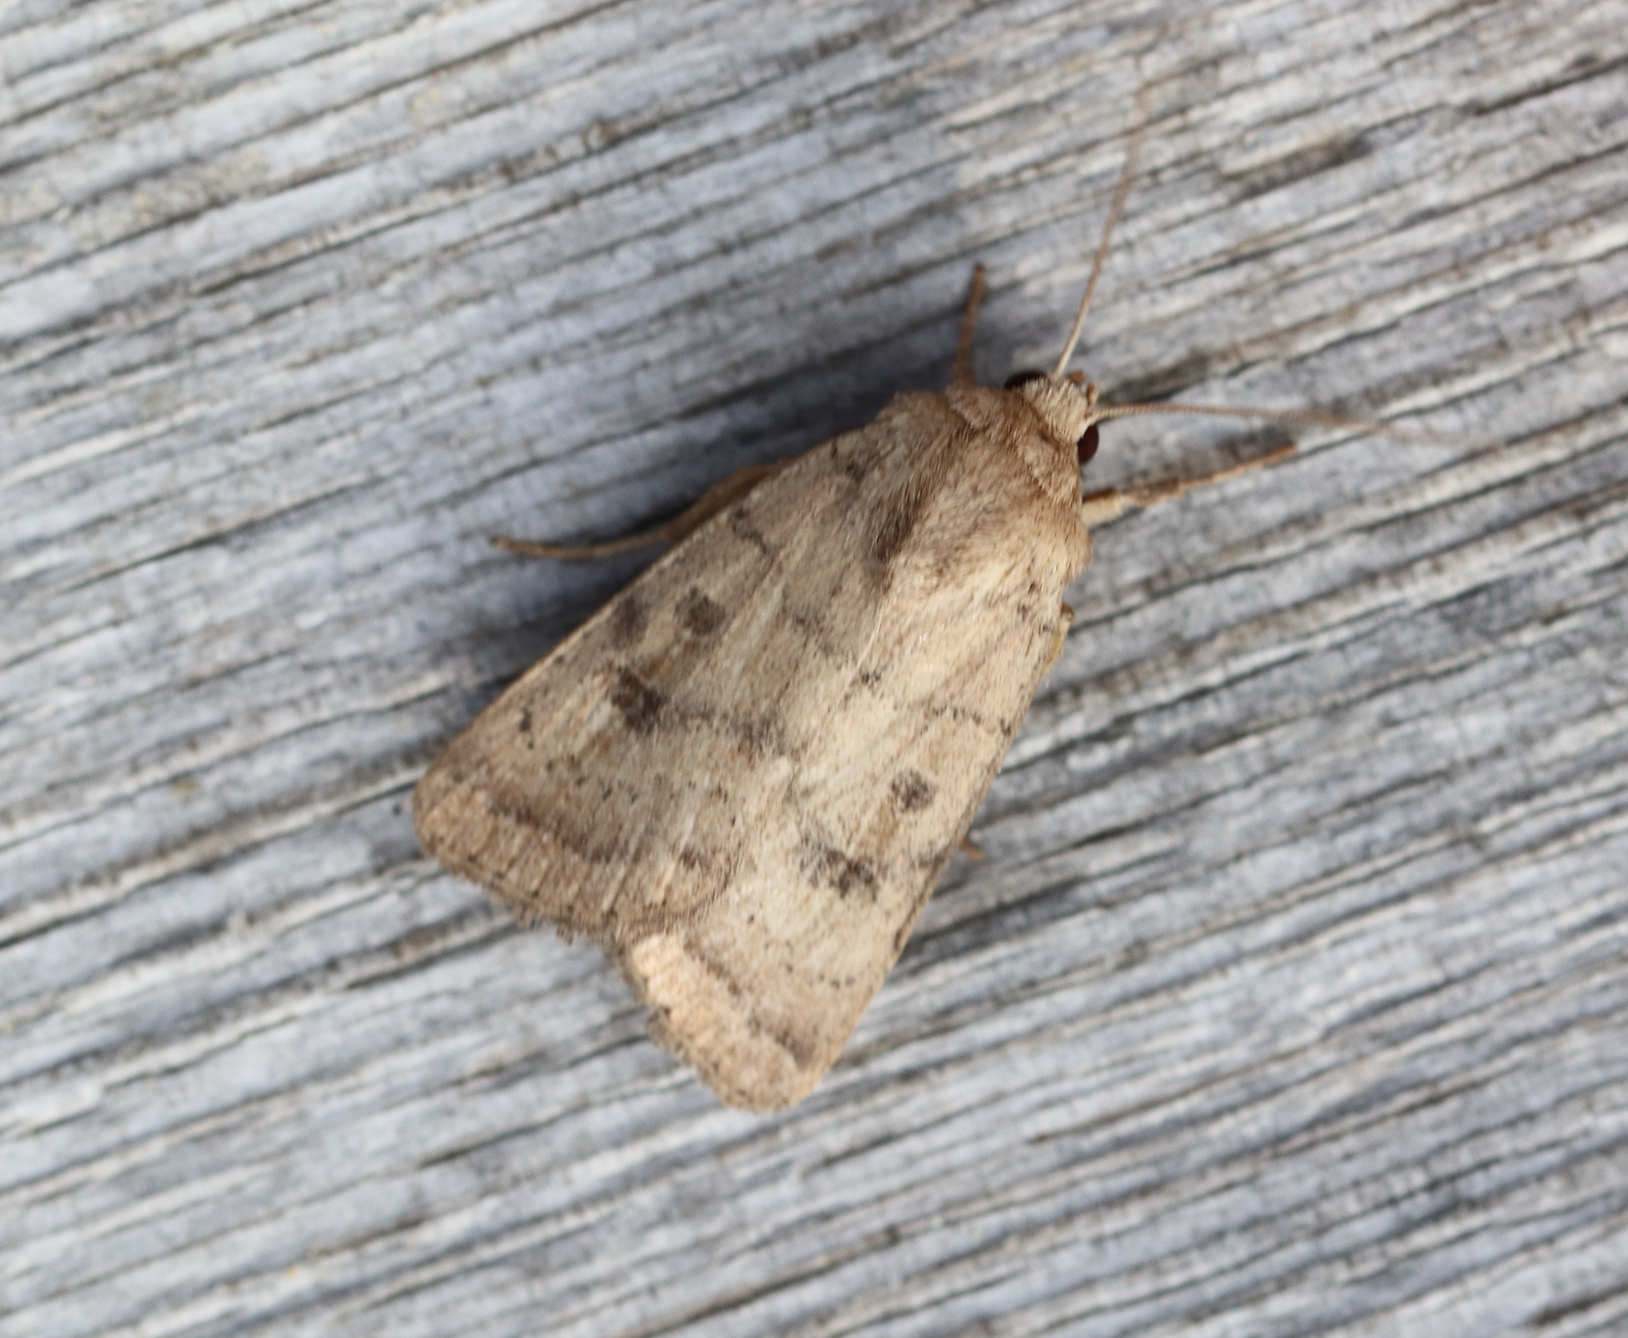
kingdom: Animalia
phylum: Arthropoda
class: Insecta
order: Lepidoptera
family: Noctuidae
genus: Hoplodrina
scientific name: Hoplodrina octogenaria
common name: Uncertain
